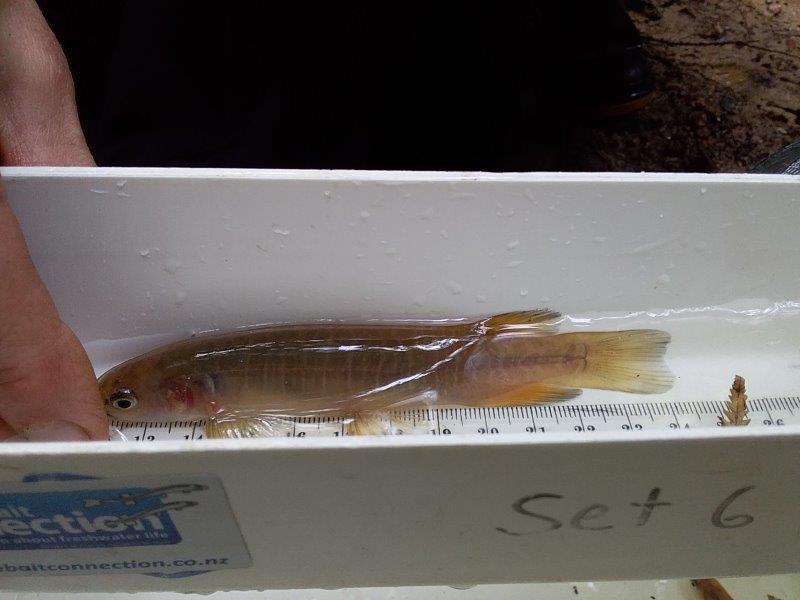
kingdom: Animalia
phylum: Chordata
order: Osmeriformes
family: Galaxiidae
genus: Galaxias
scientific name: Galaxias fasciatus
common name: Banded kokopu
